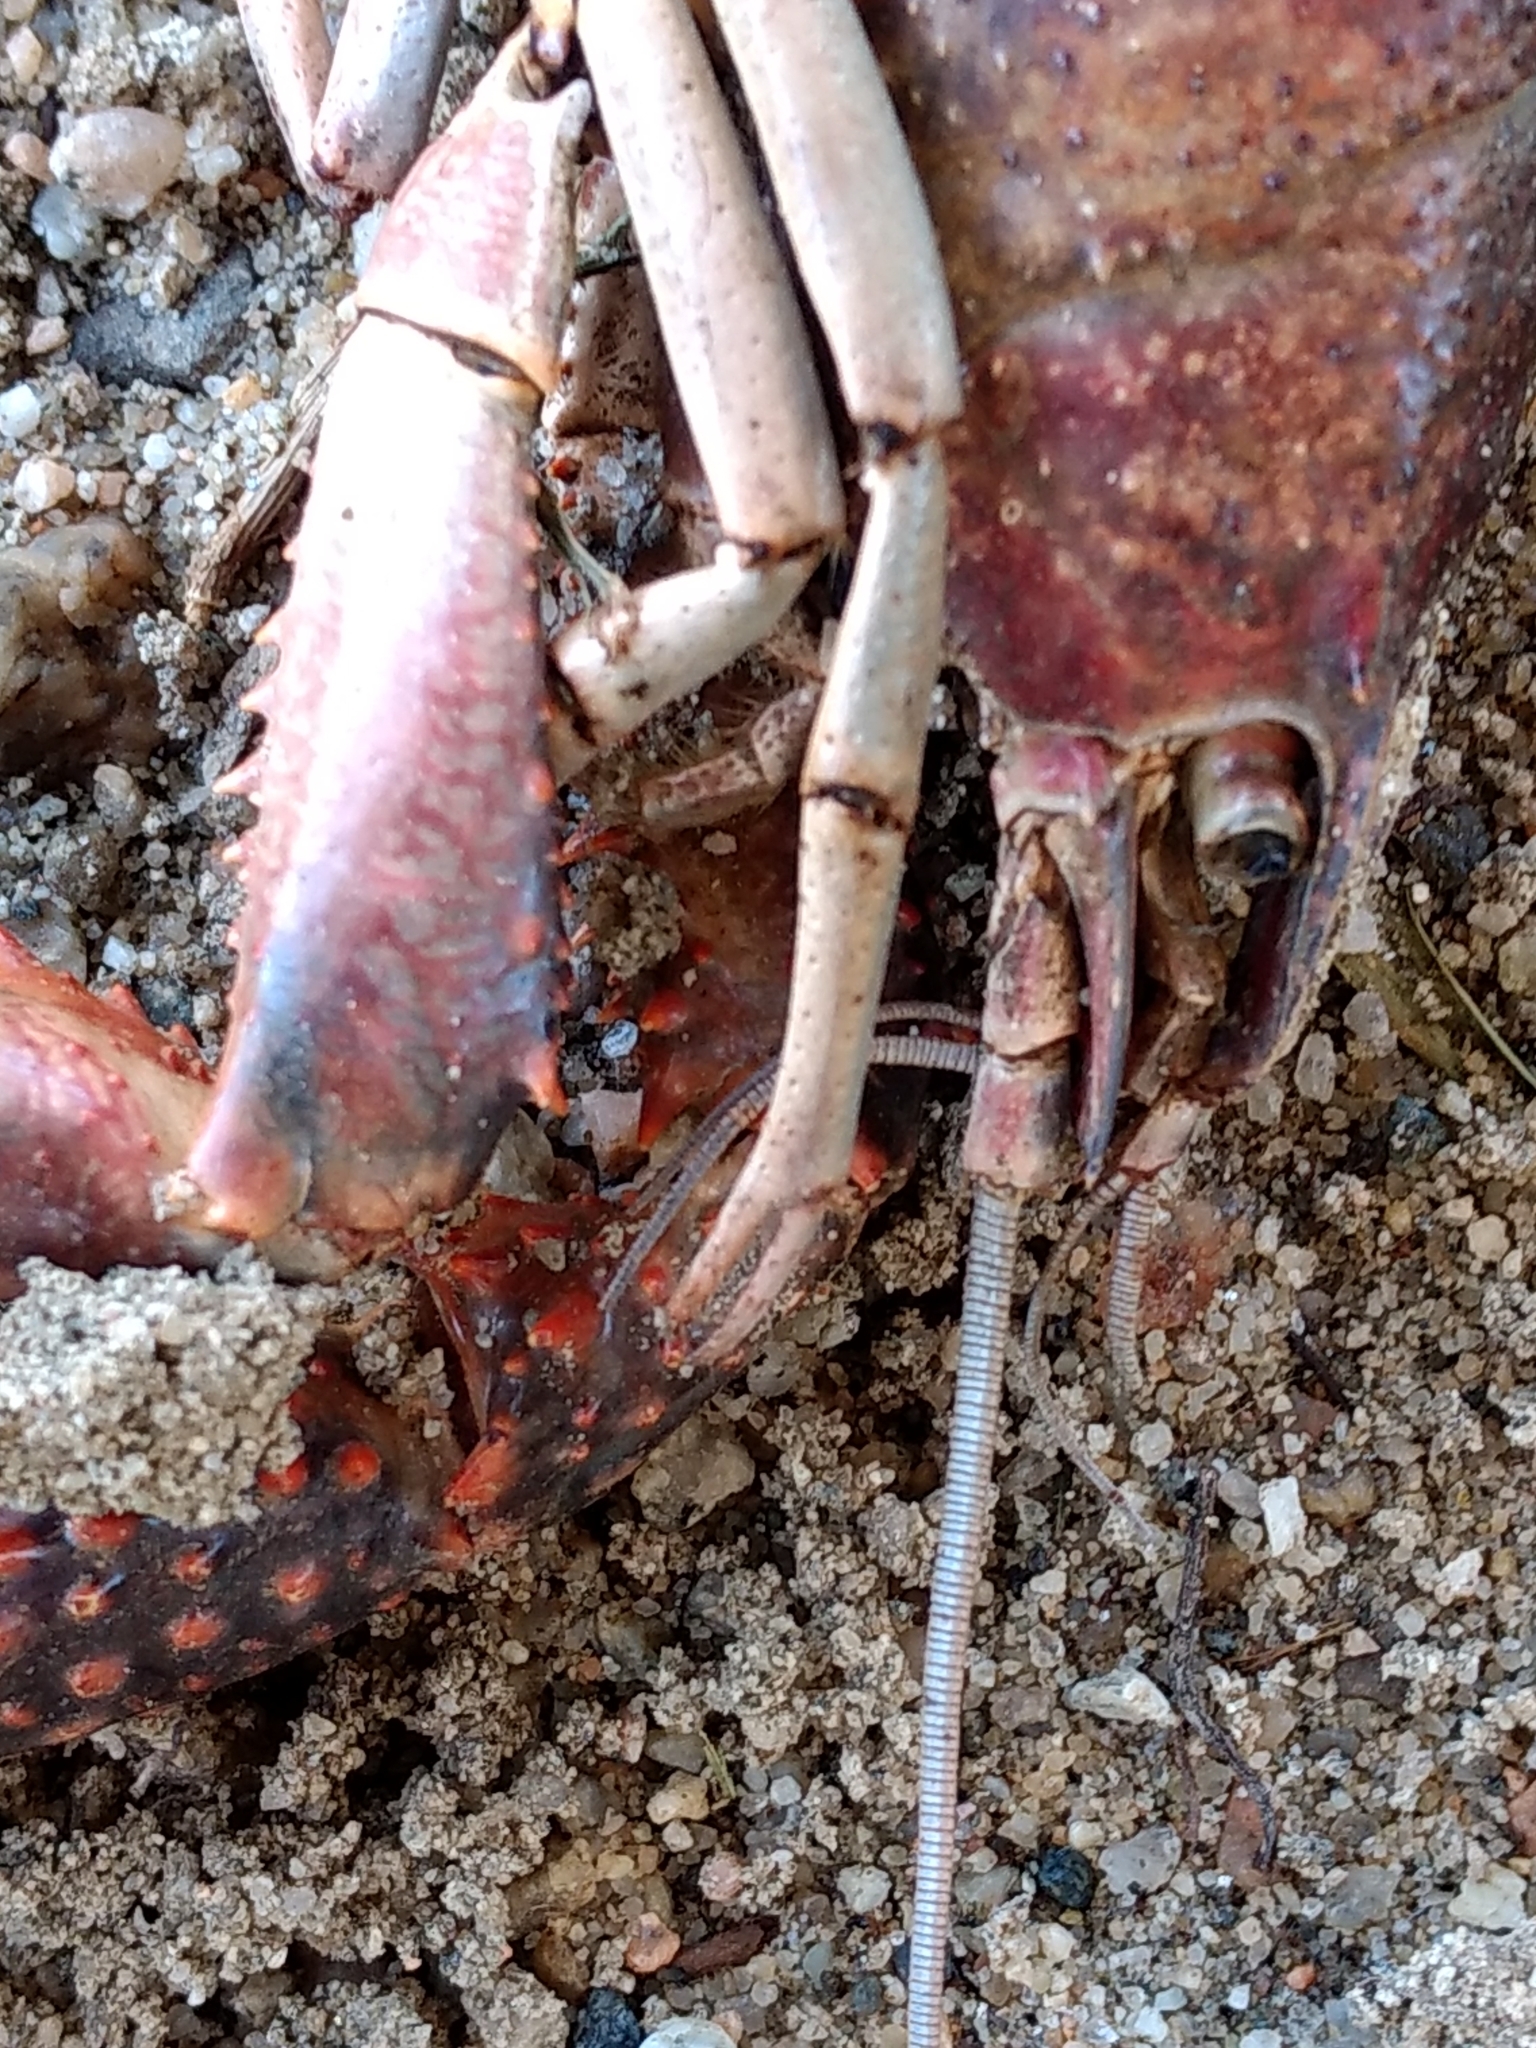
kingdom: Animalia
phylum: Arthropoda
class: Malacostraca
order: Decapoda
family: Cambaridae
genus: Procambarus
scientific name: Procambarus clarkii
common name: Red swamp crayfish
